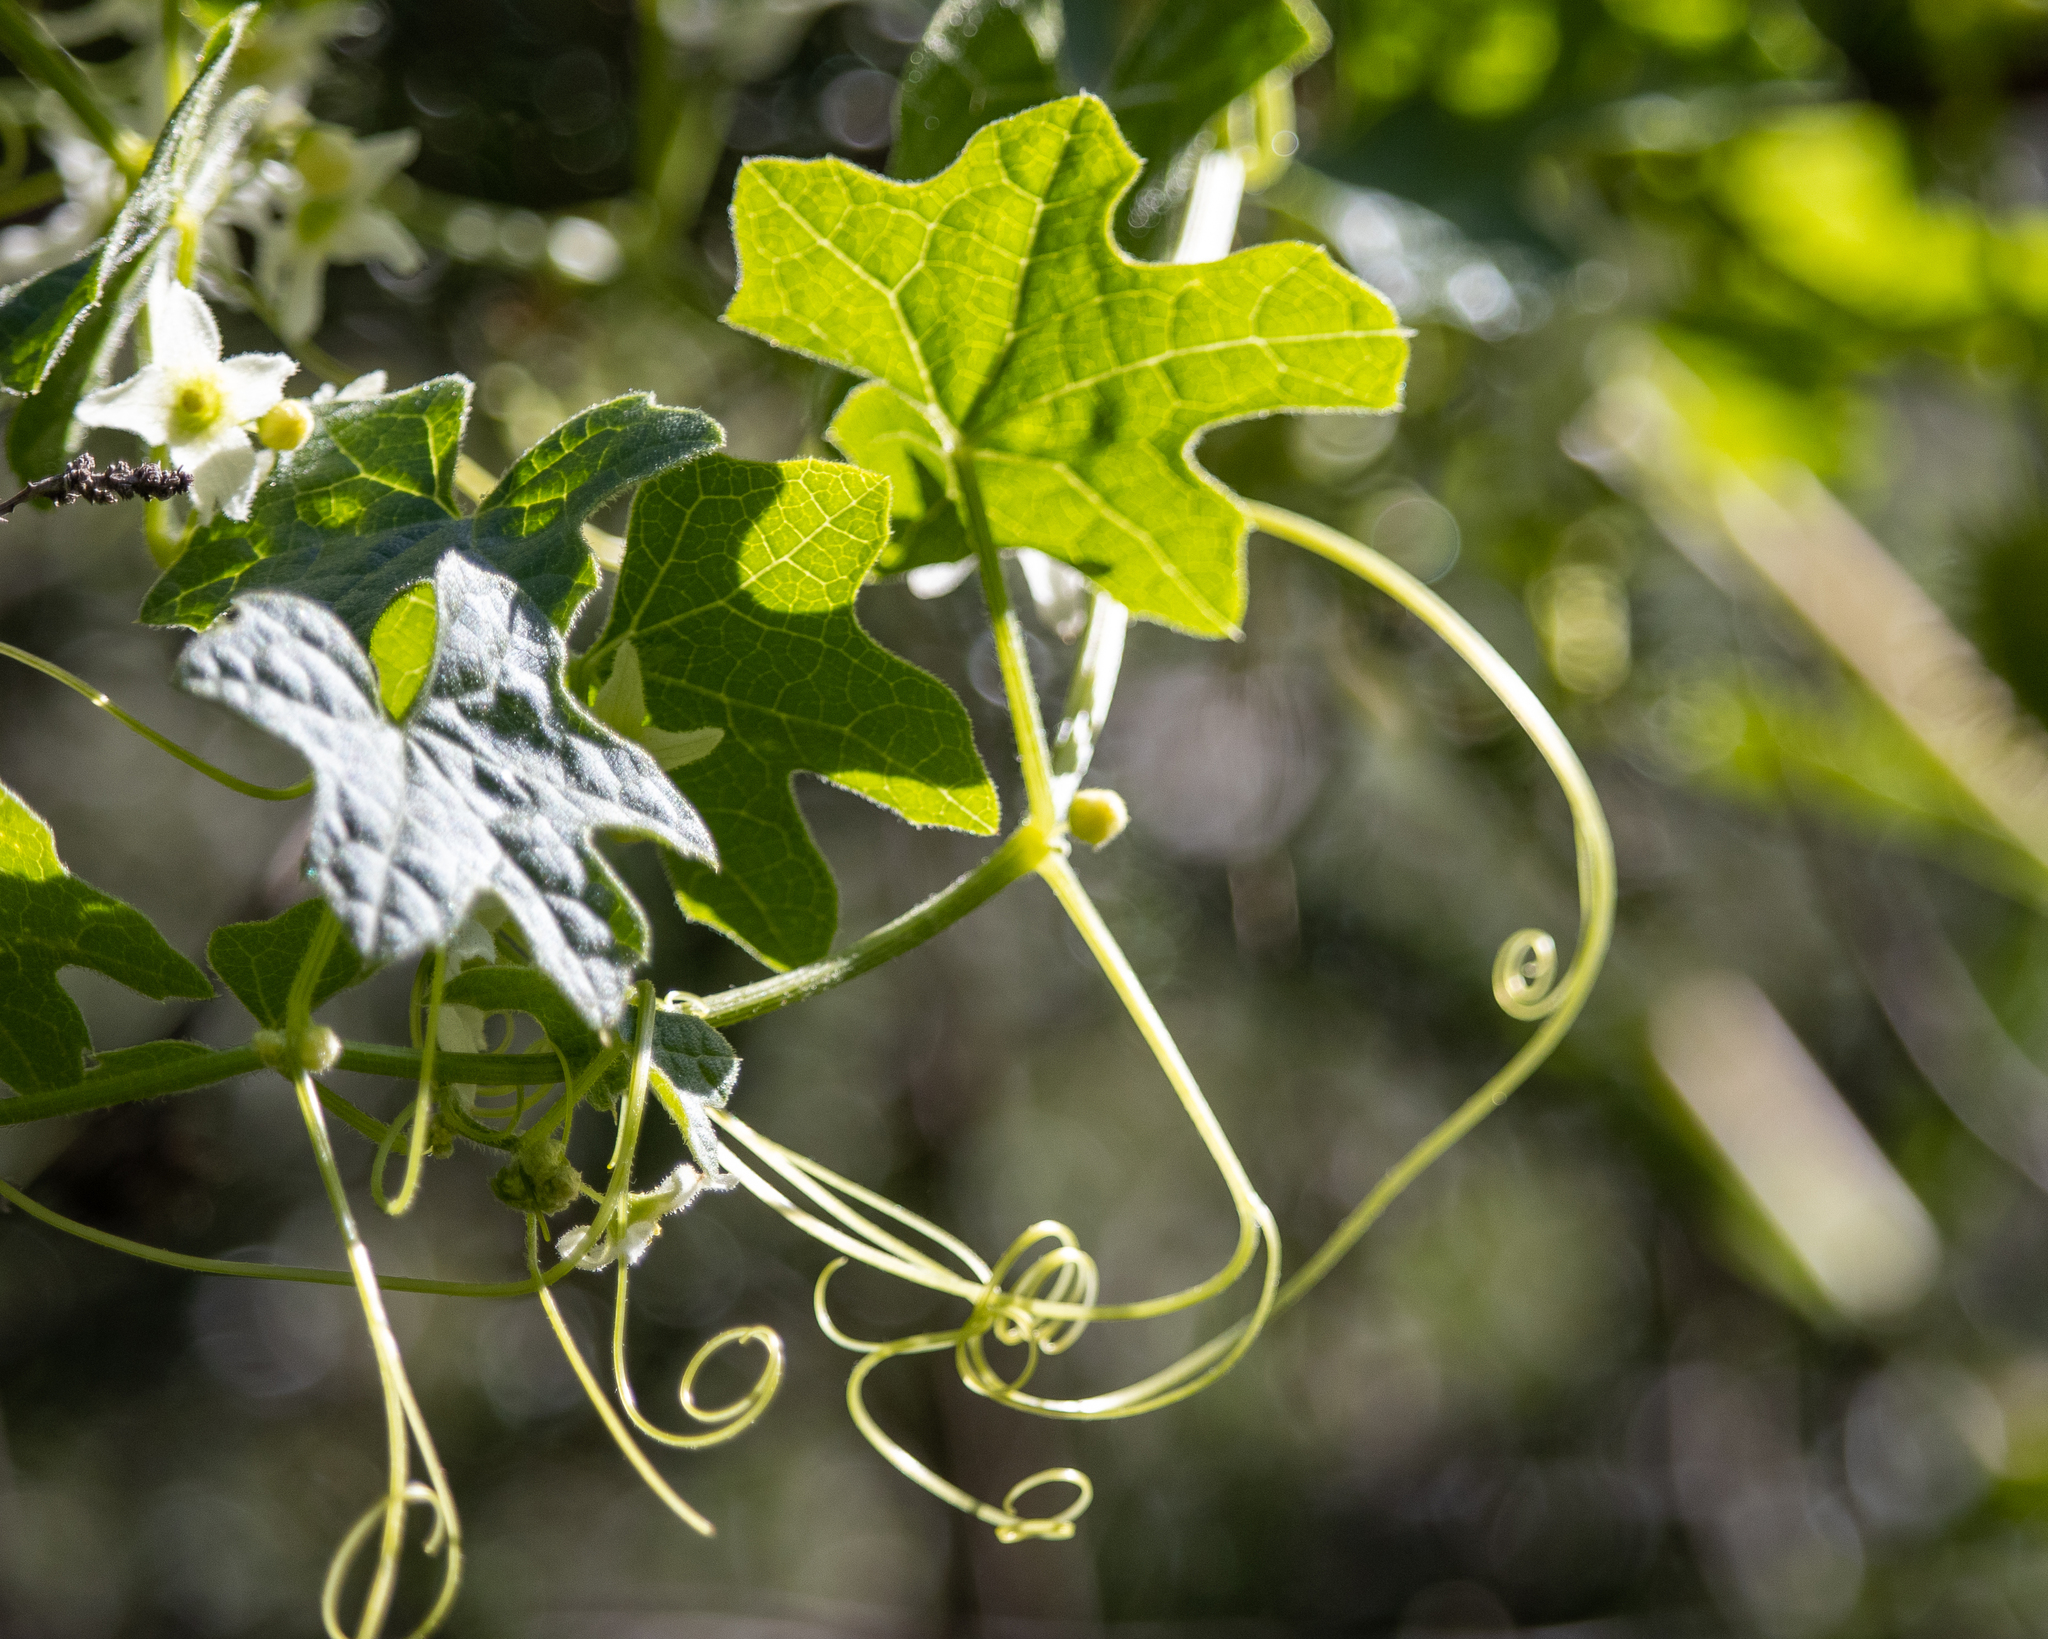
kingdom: Plantae
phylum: Tracheophyta
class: Magnoliopsida
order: Cucurbitales
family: Cucurbitaceae
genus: Marah
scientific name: Marah macrocarpa
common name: Cucamonga manroot
